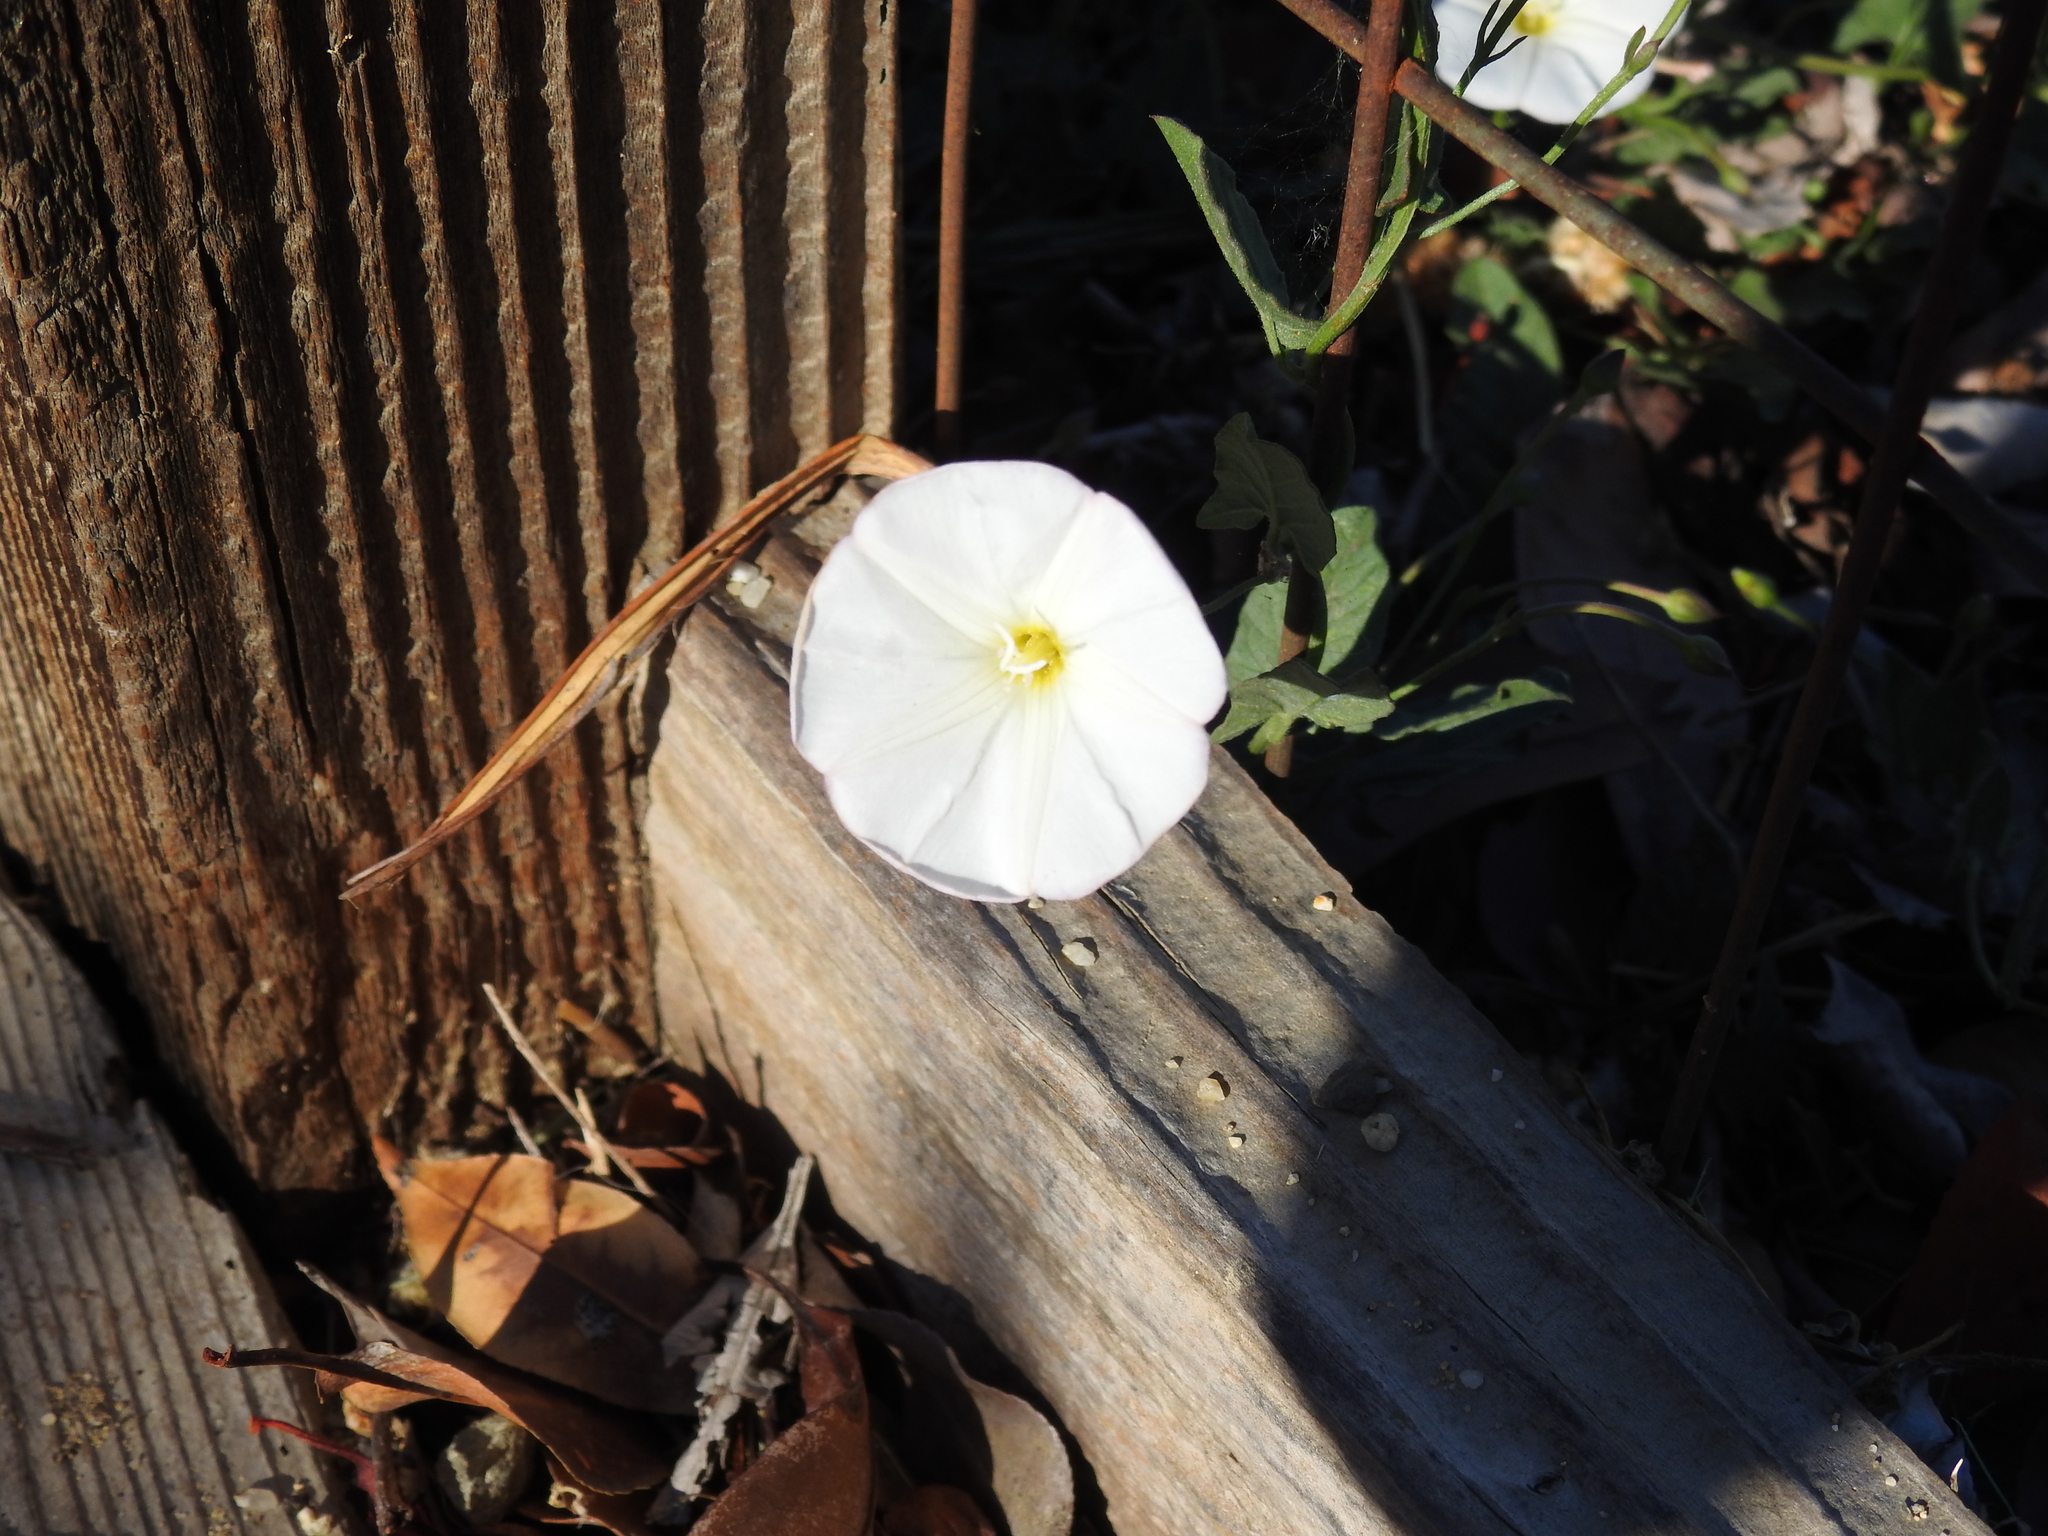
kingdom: Plantae
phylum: Tracheophyta
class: Magnoliopsida
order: Solanales
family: Convolvulaceae
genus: Convolvulus
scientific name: Convolvulus arvensis
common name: Field bindweed
